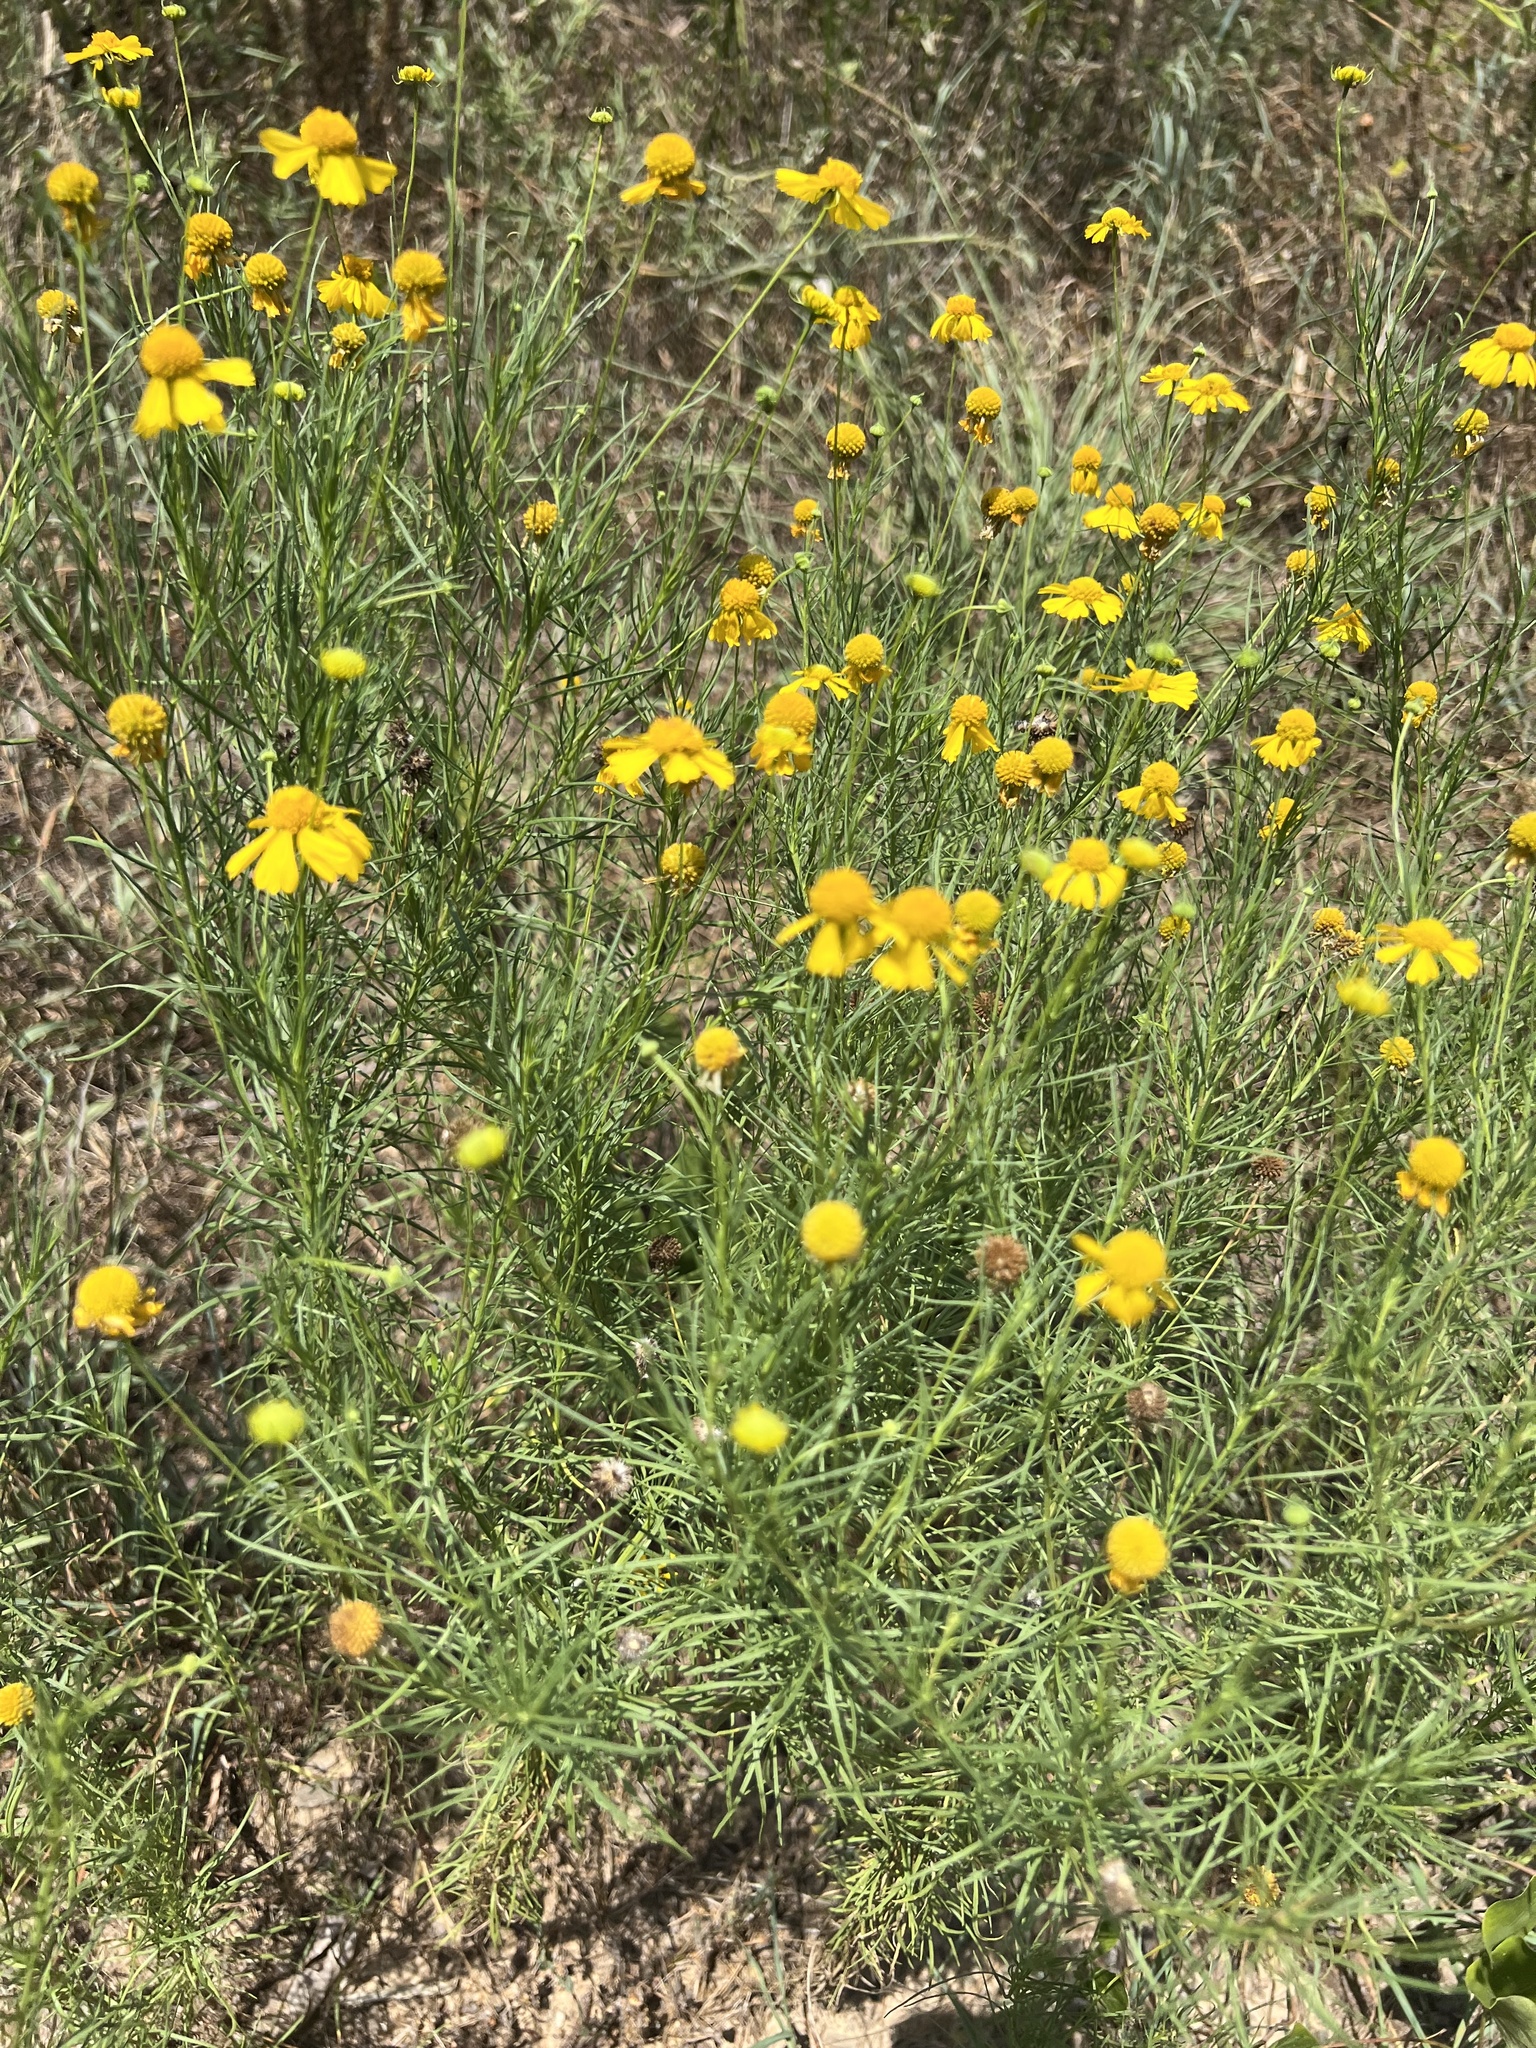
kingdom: Plantae
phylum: Tracheophyta
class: Magnoliopsida
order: Asterales
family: Asteraceae
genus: Helenium
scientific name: Helenium amarum
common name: Bitter sneezeweed
